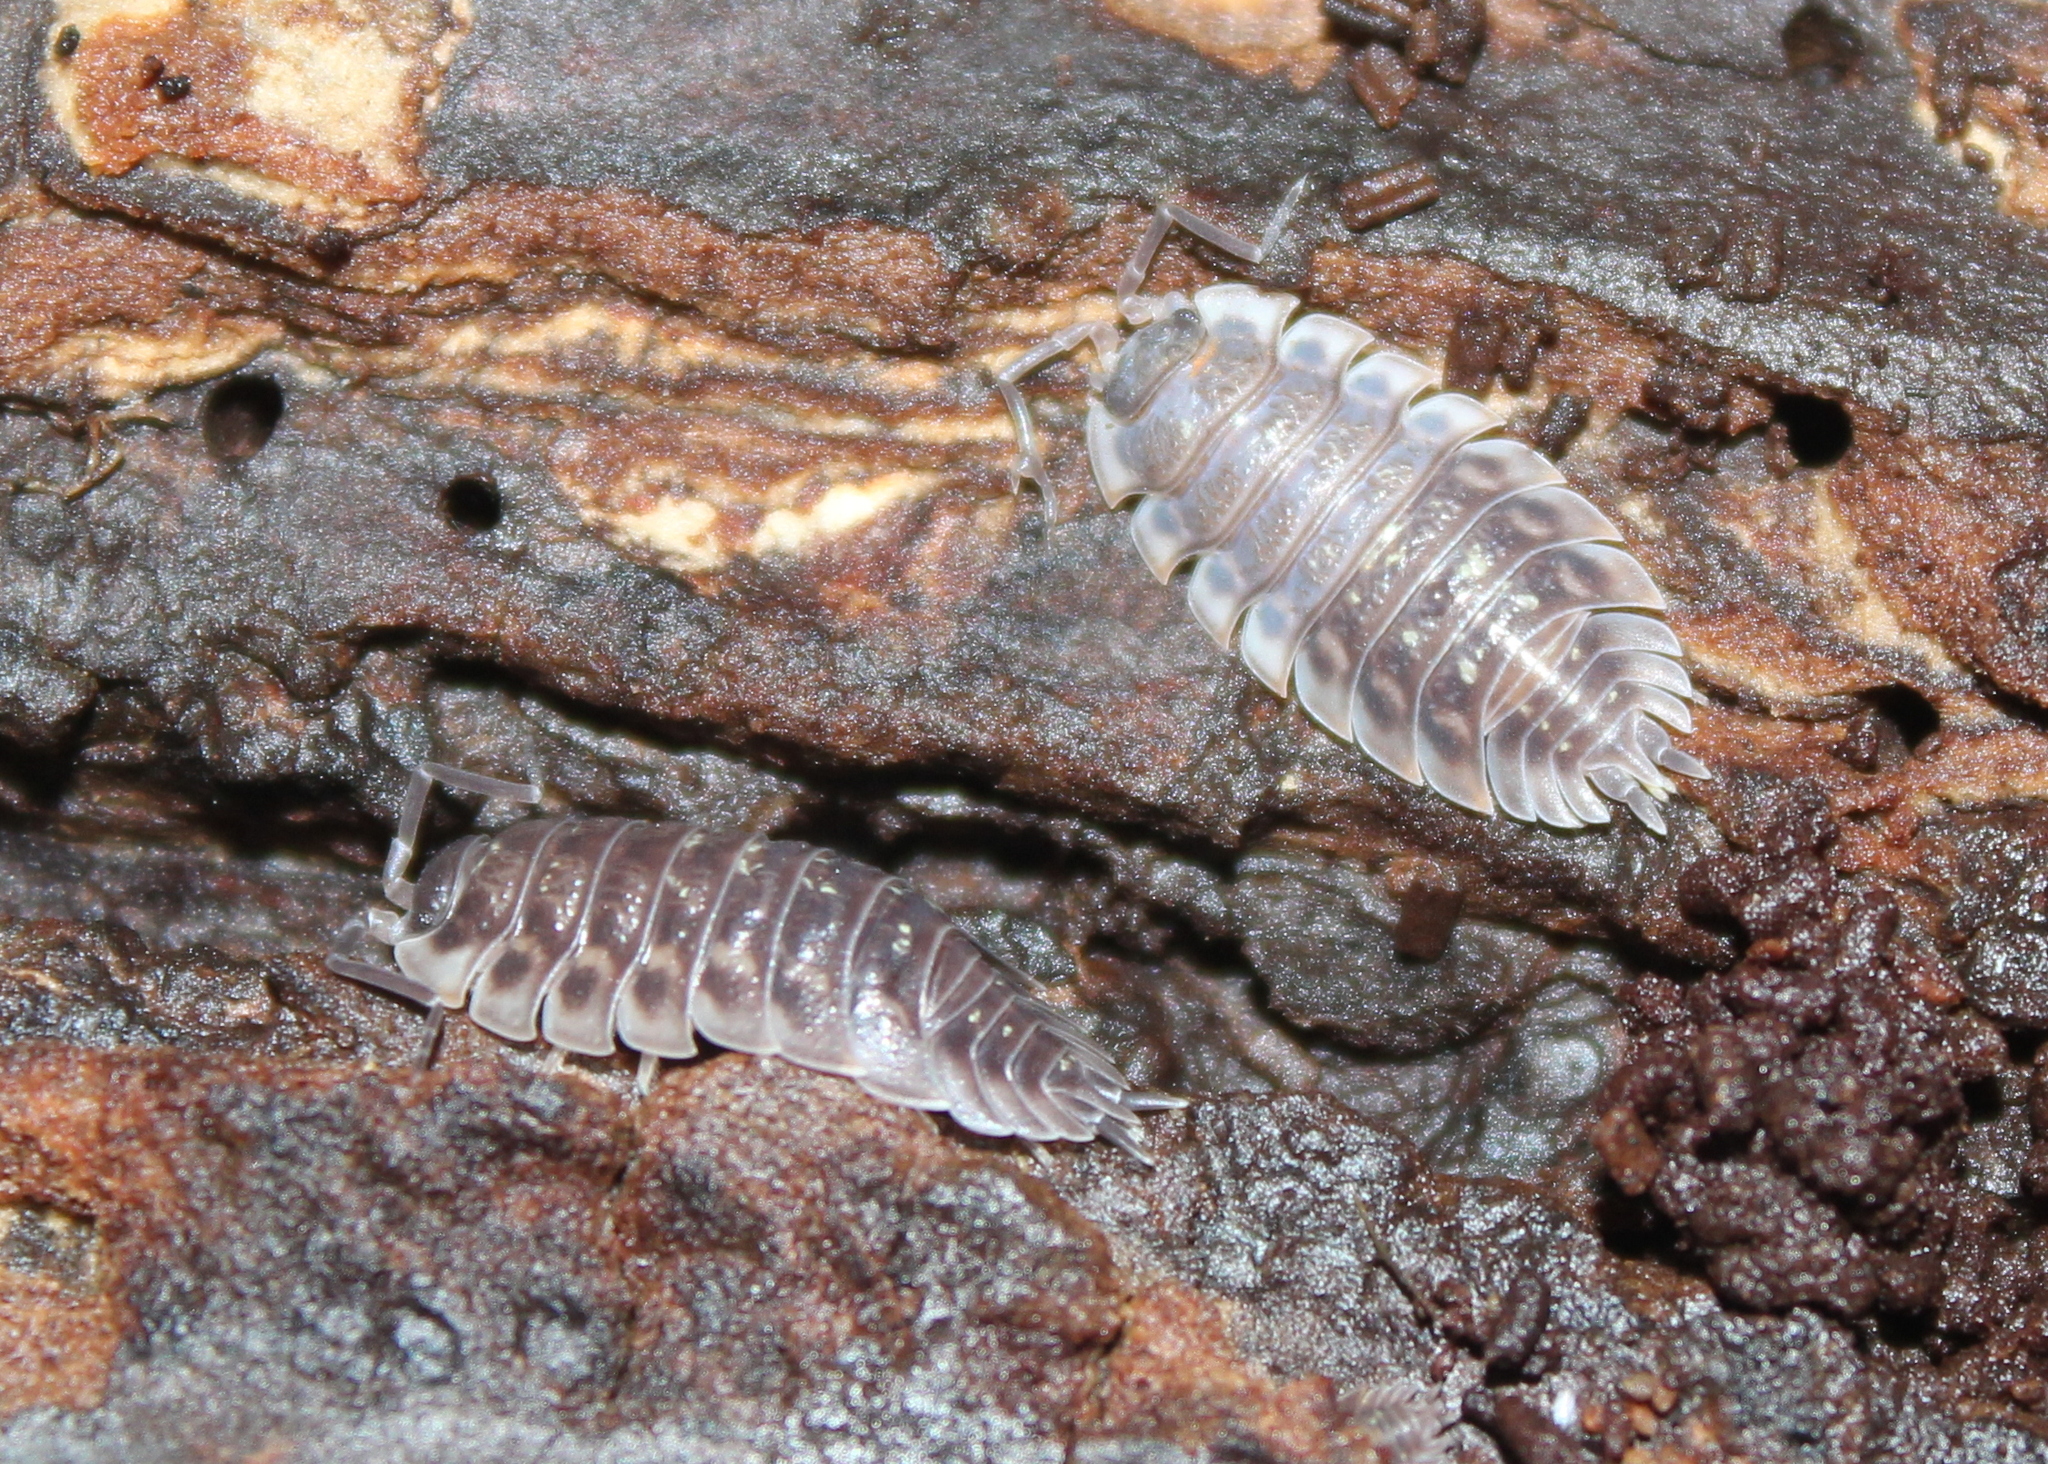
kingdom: Animalia
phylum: Arthropoda
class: Malacostraca
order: Isopoda
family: Oniscidae
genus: Oniscus
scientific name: Oniscus asellus
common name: Common shiny woodlouse
